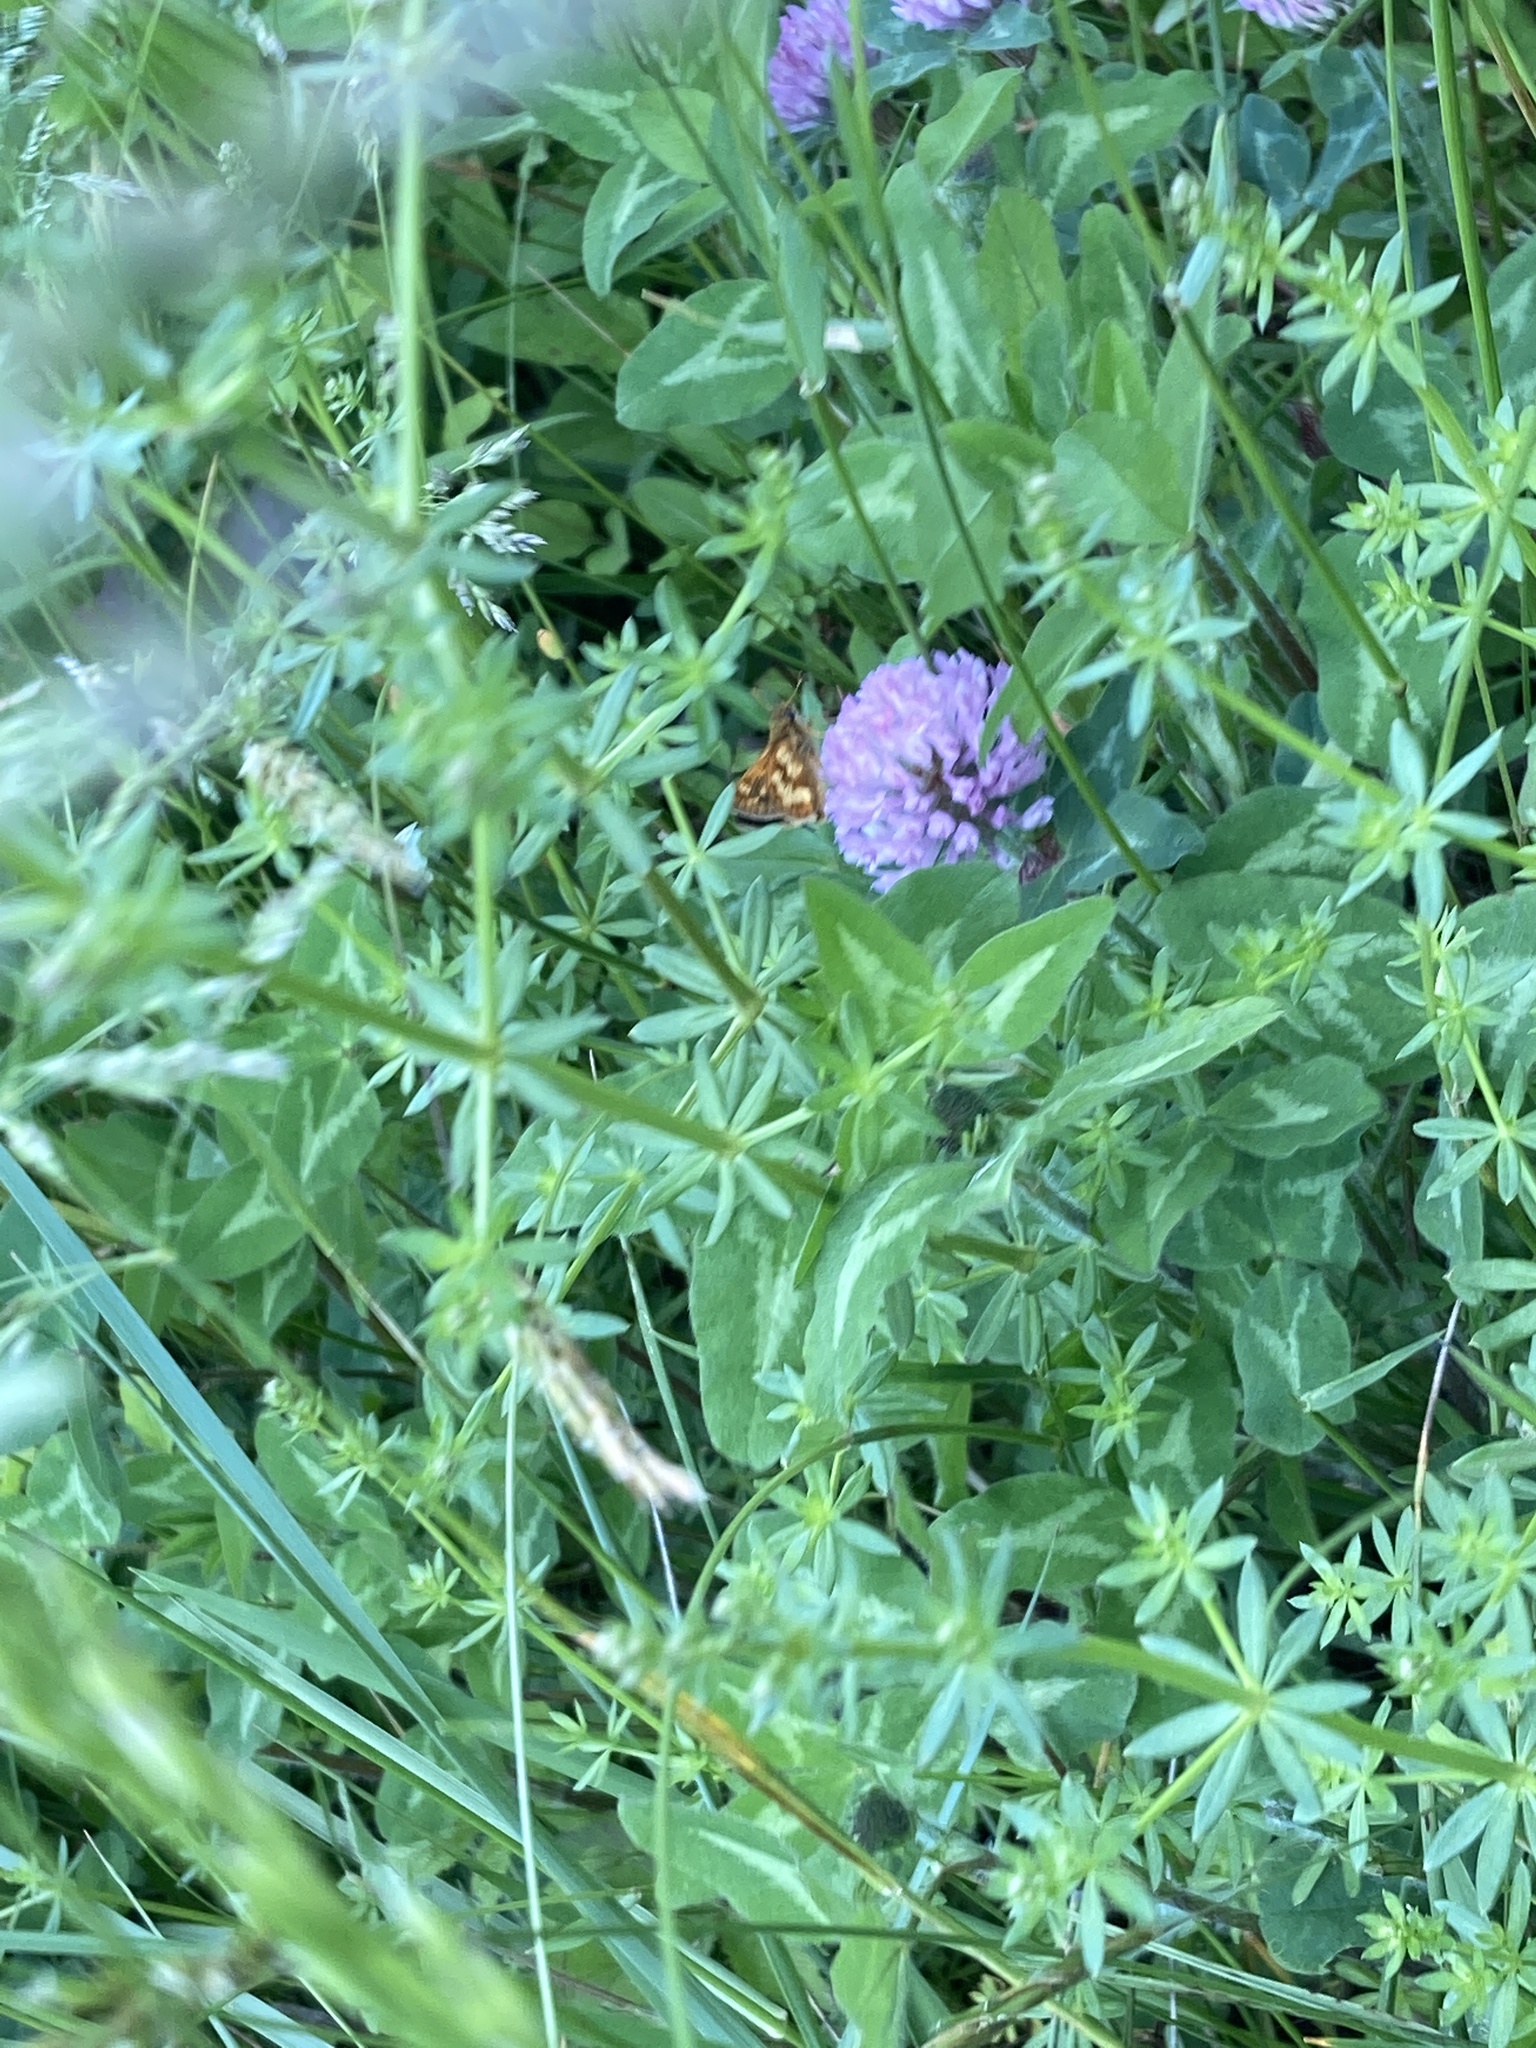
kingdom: Animalia
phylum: Arthropoda
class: Insecta
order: Lepidoptera
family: Hesperiidae
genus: Polites
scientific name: Polites coras
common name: Peck's skipper
